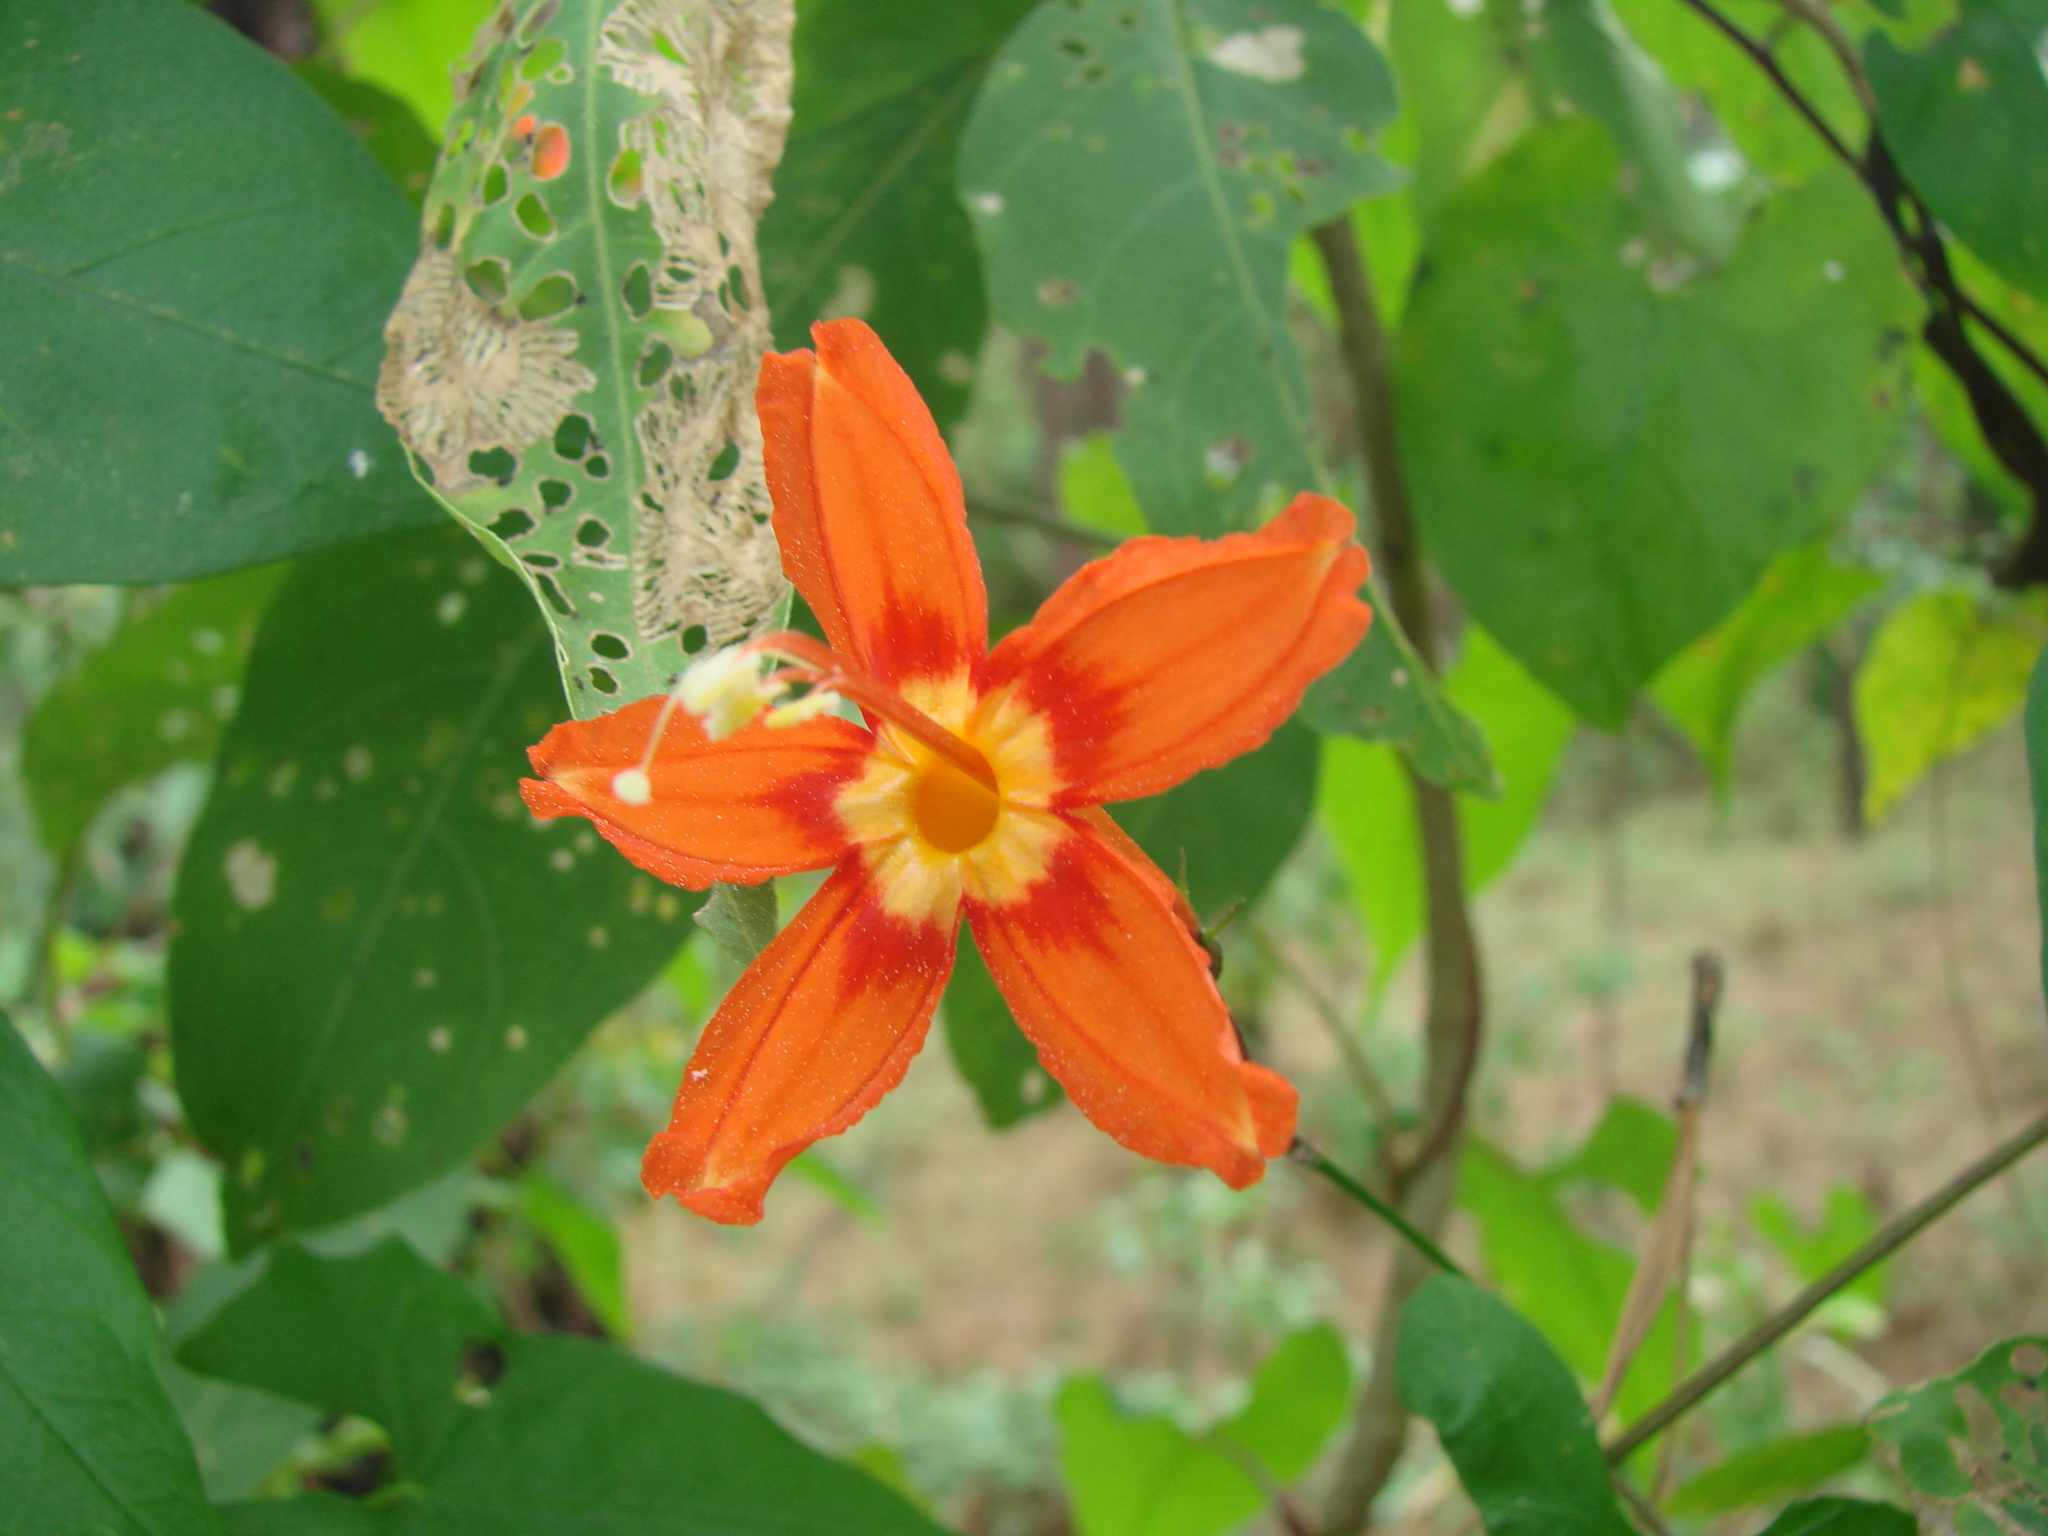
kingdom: Plantae
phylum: Tracheophyta
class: Magnoliopsida
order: Solanales
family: Convolvulaceae
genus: Ipomoea
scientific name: Ipomoea spectata
